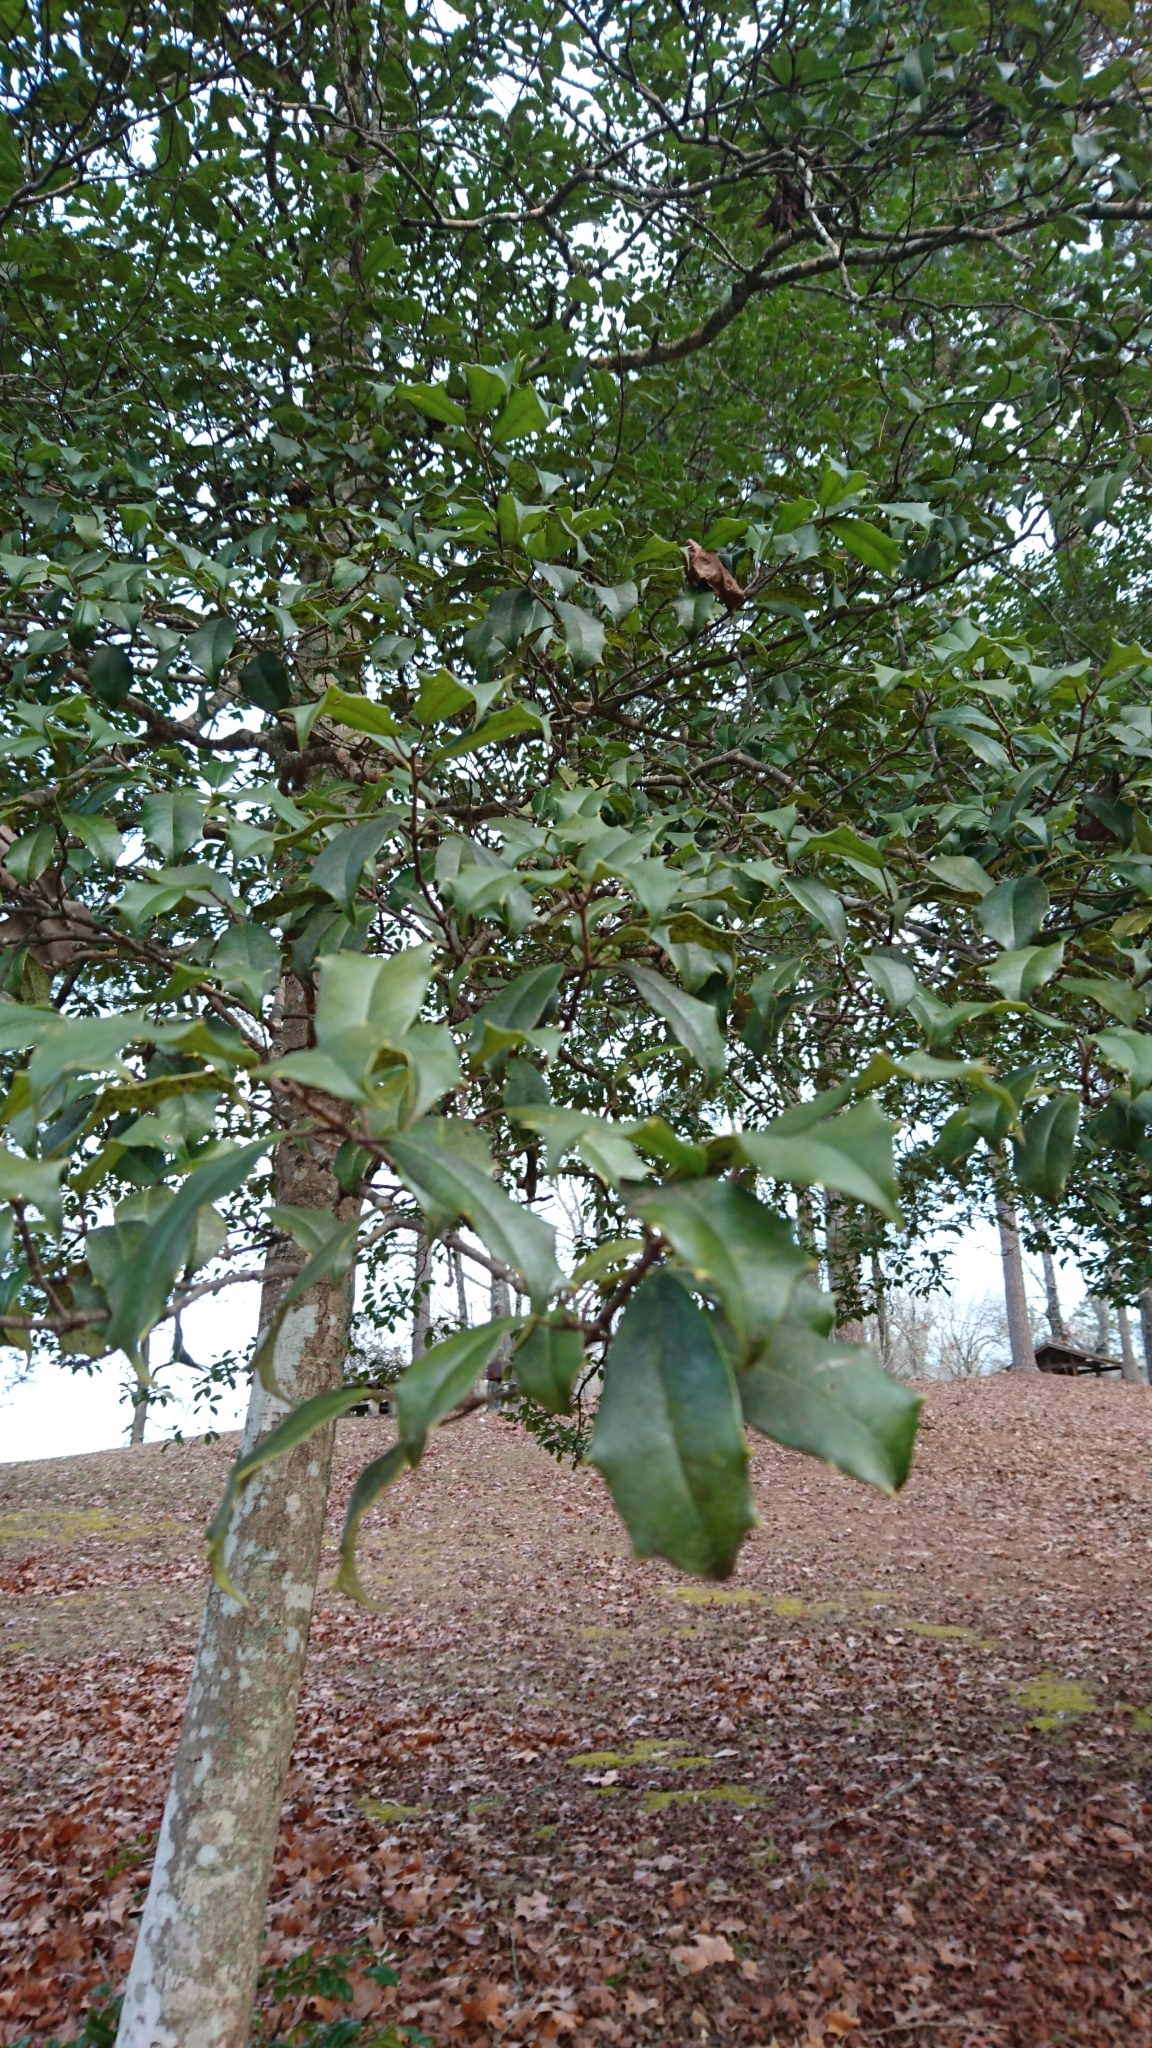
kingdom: Plantae
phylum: Tracheophyta
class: Magnoliopsida
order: Aquifoliales
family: Aquifoliaceae
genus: Ilex
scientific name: Ilex opaca
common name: American holly
